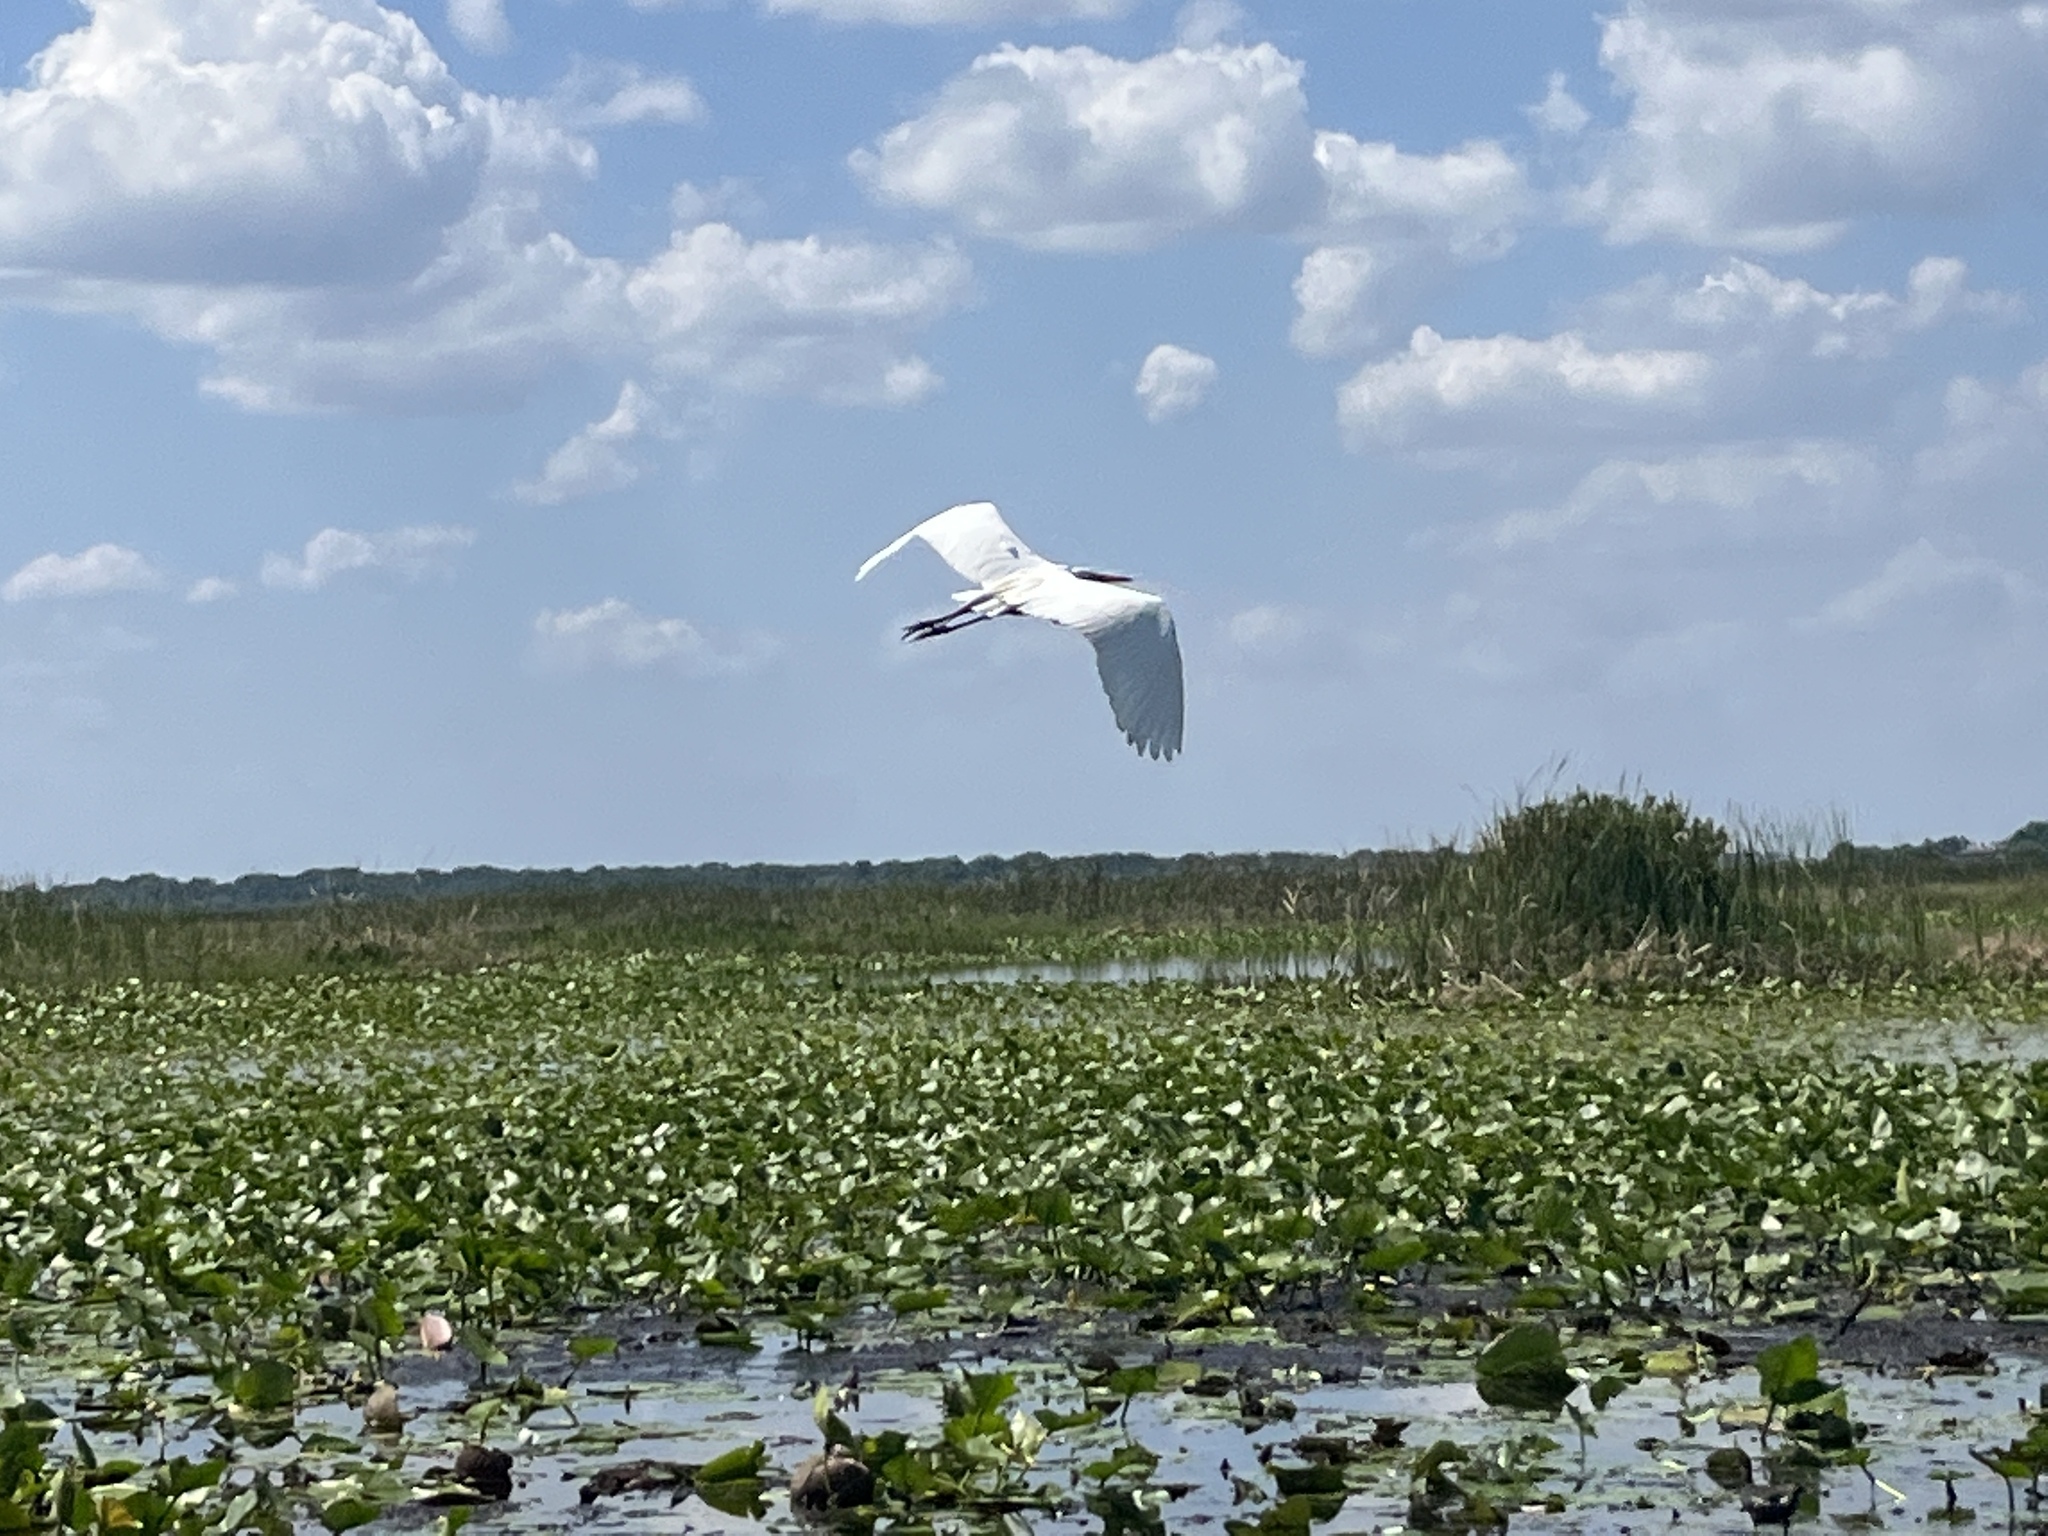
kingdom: Animalia
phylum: Chordata
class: Aves
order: Pelecaniformes
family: Ardeidae
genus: Ardea
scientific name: Ardea alba
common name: Great egret
